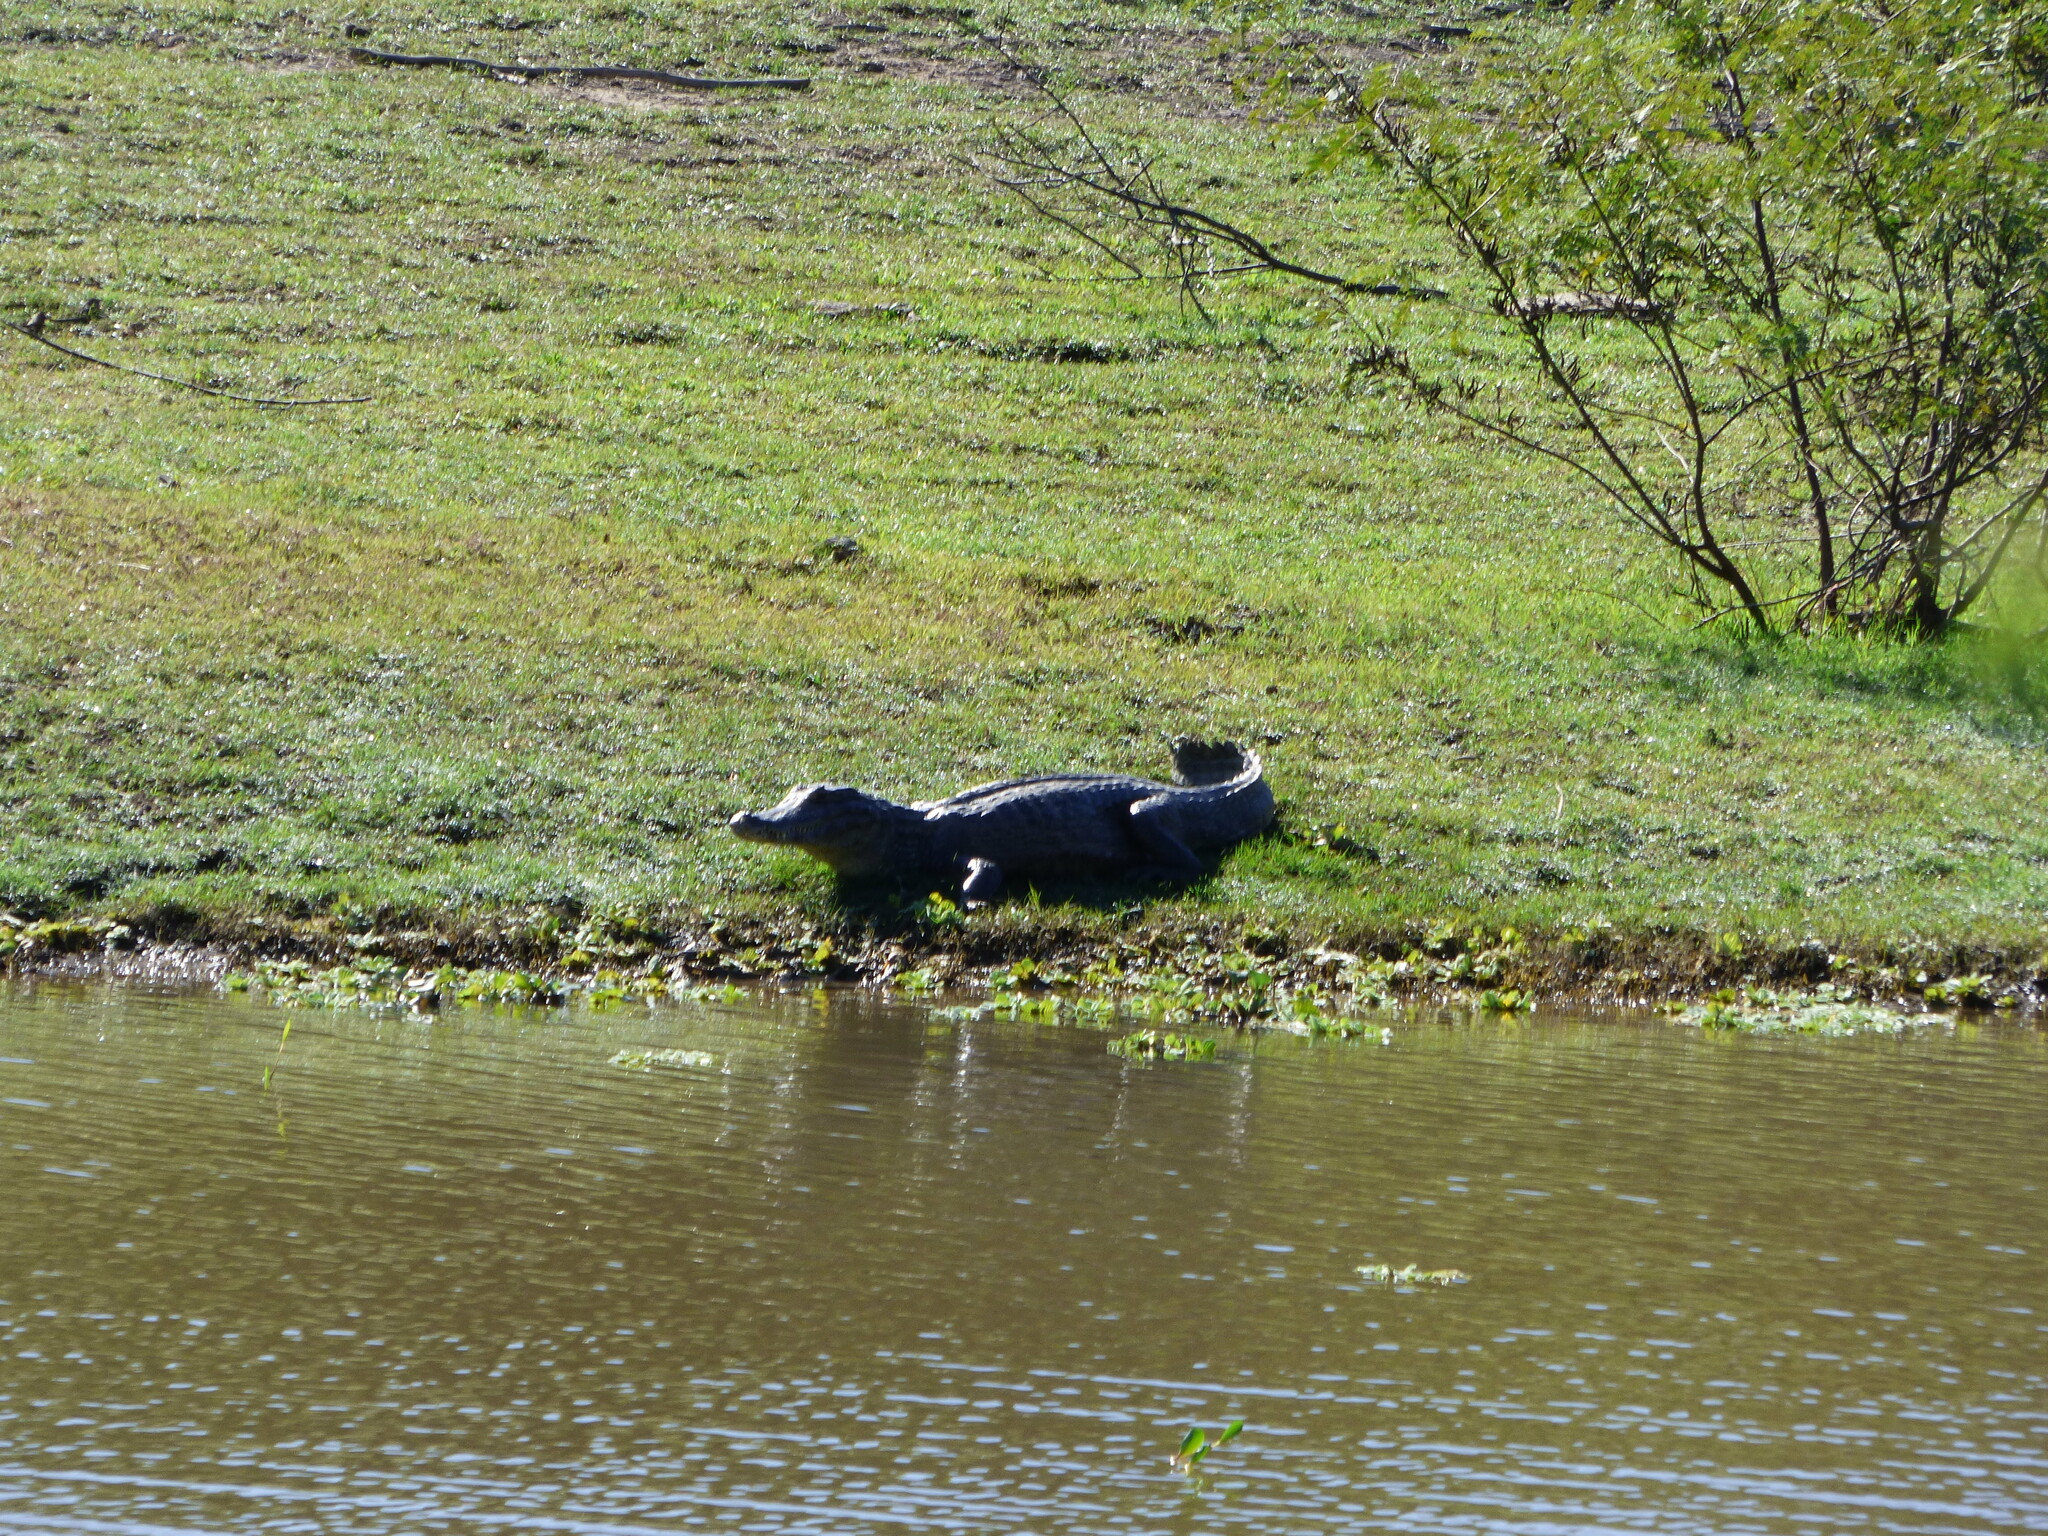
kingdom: Animalia
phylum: Chordata
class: Crocodylia
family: Alligatoridae
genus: Caiman
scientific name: Caiman yacare
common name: Yacare caiman
